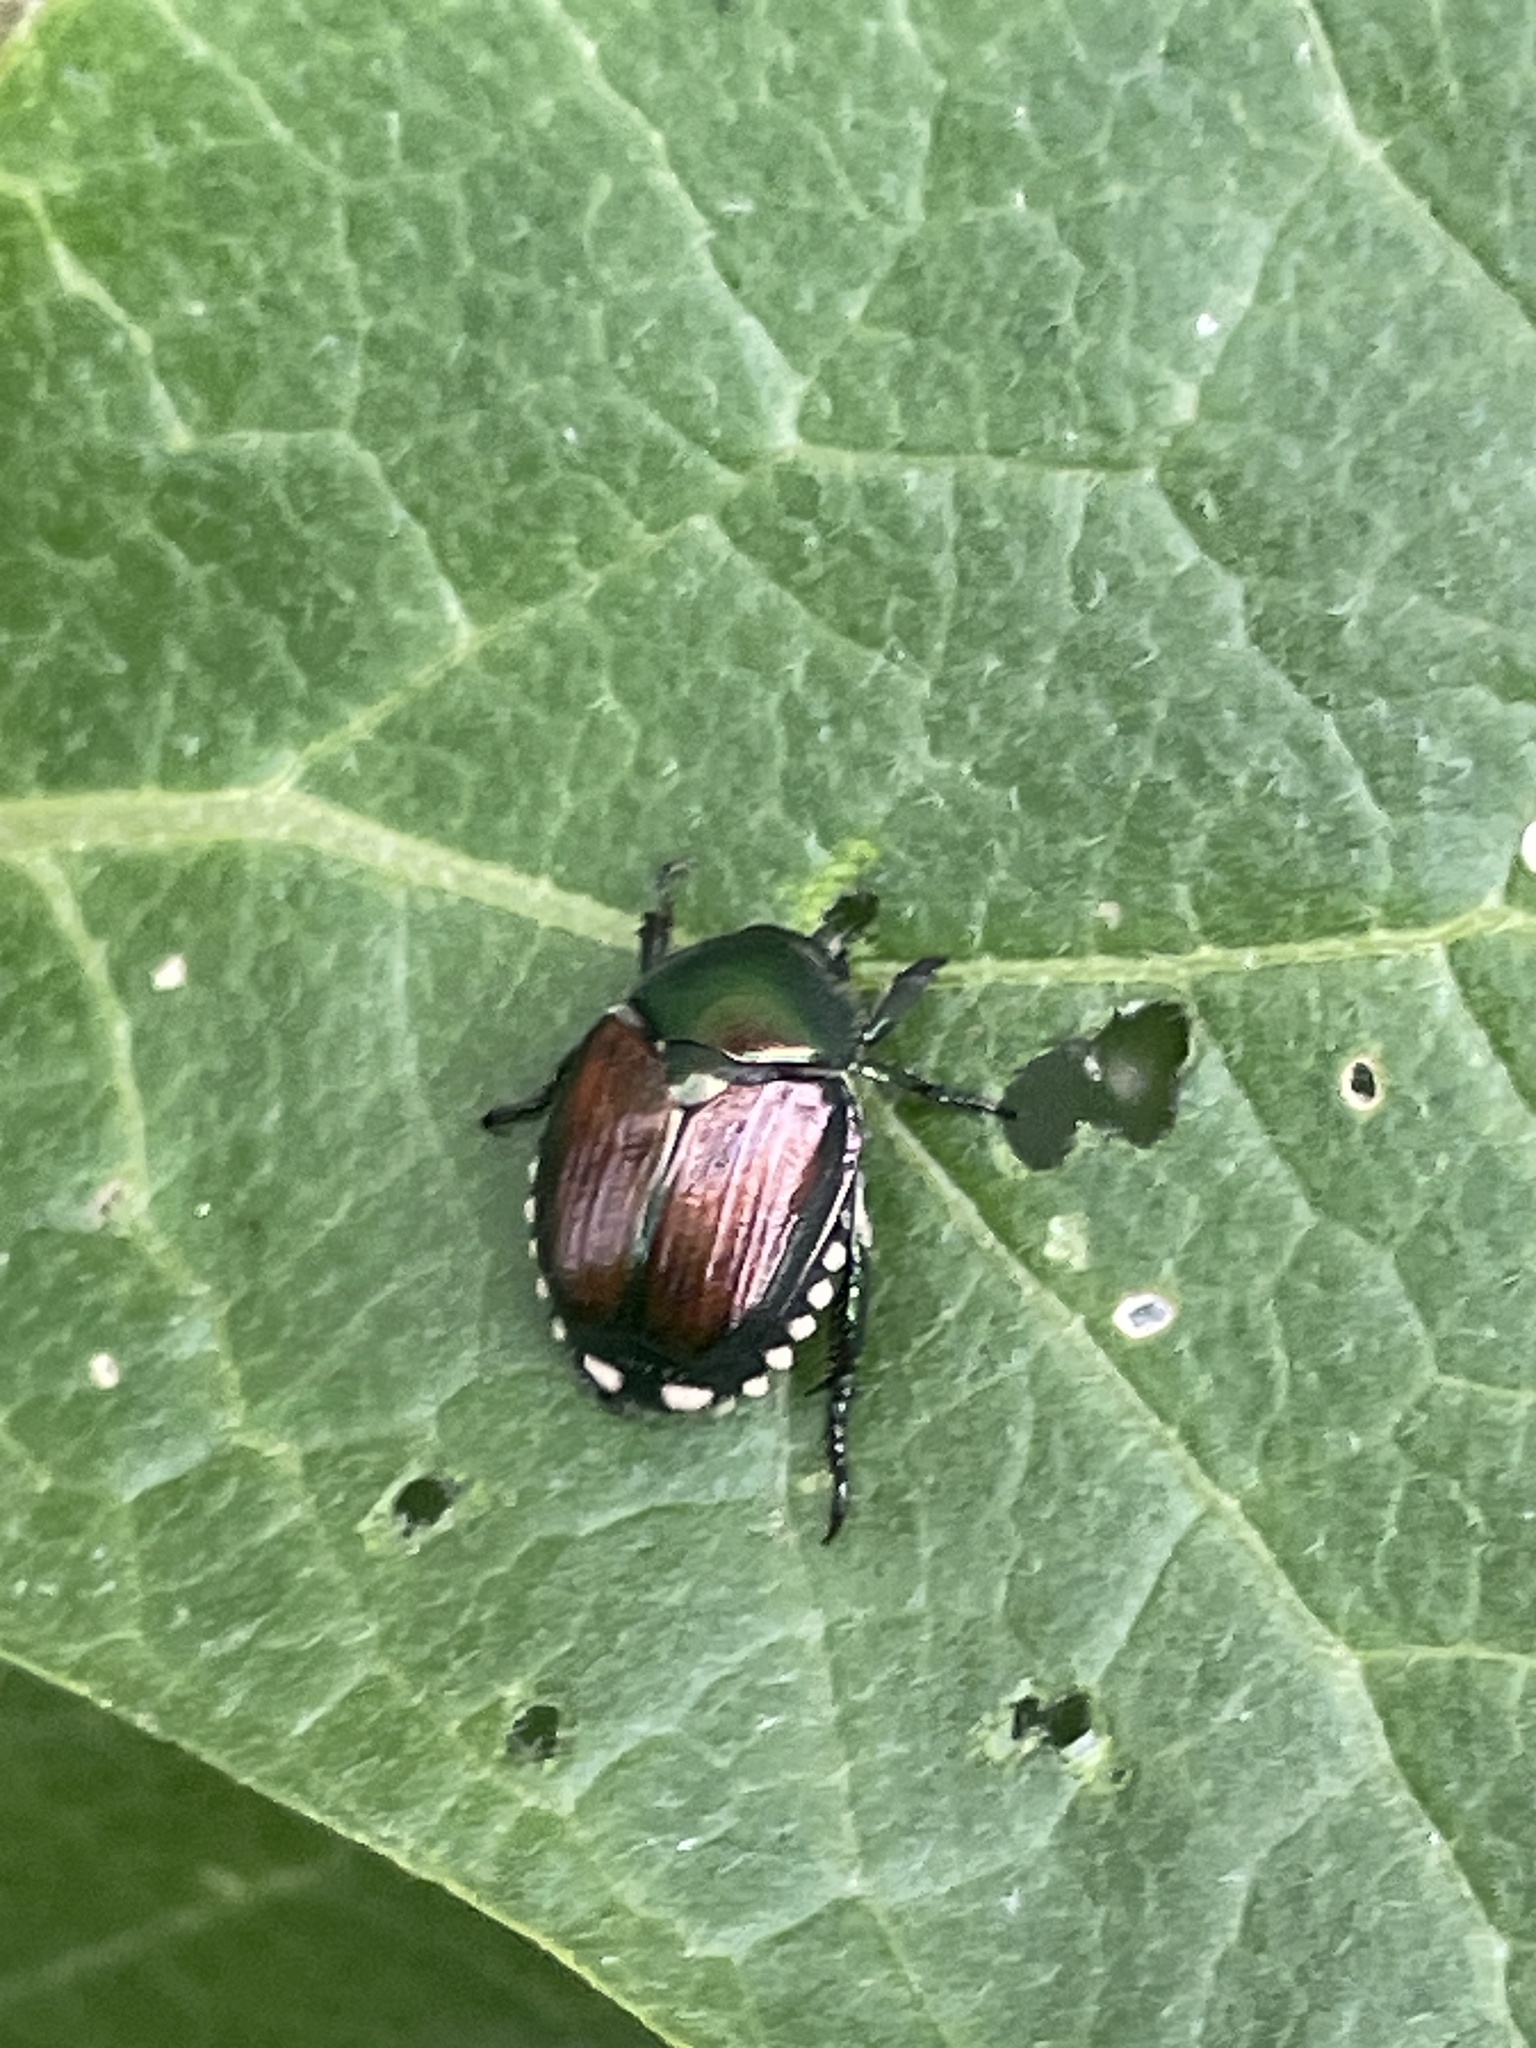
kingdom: Animalia
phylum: Arthropoda
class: Insecta
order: Coleoptera
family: Scarabaeidae
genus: Popillia
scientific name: Popillia japonica
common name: Japanese beetle
